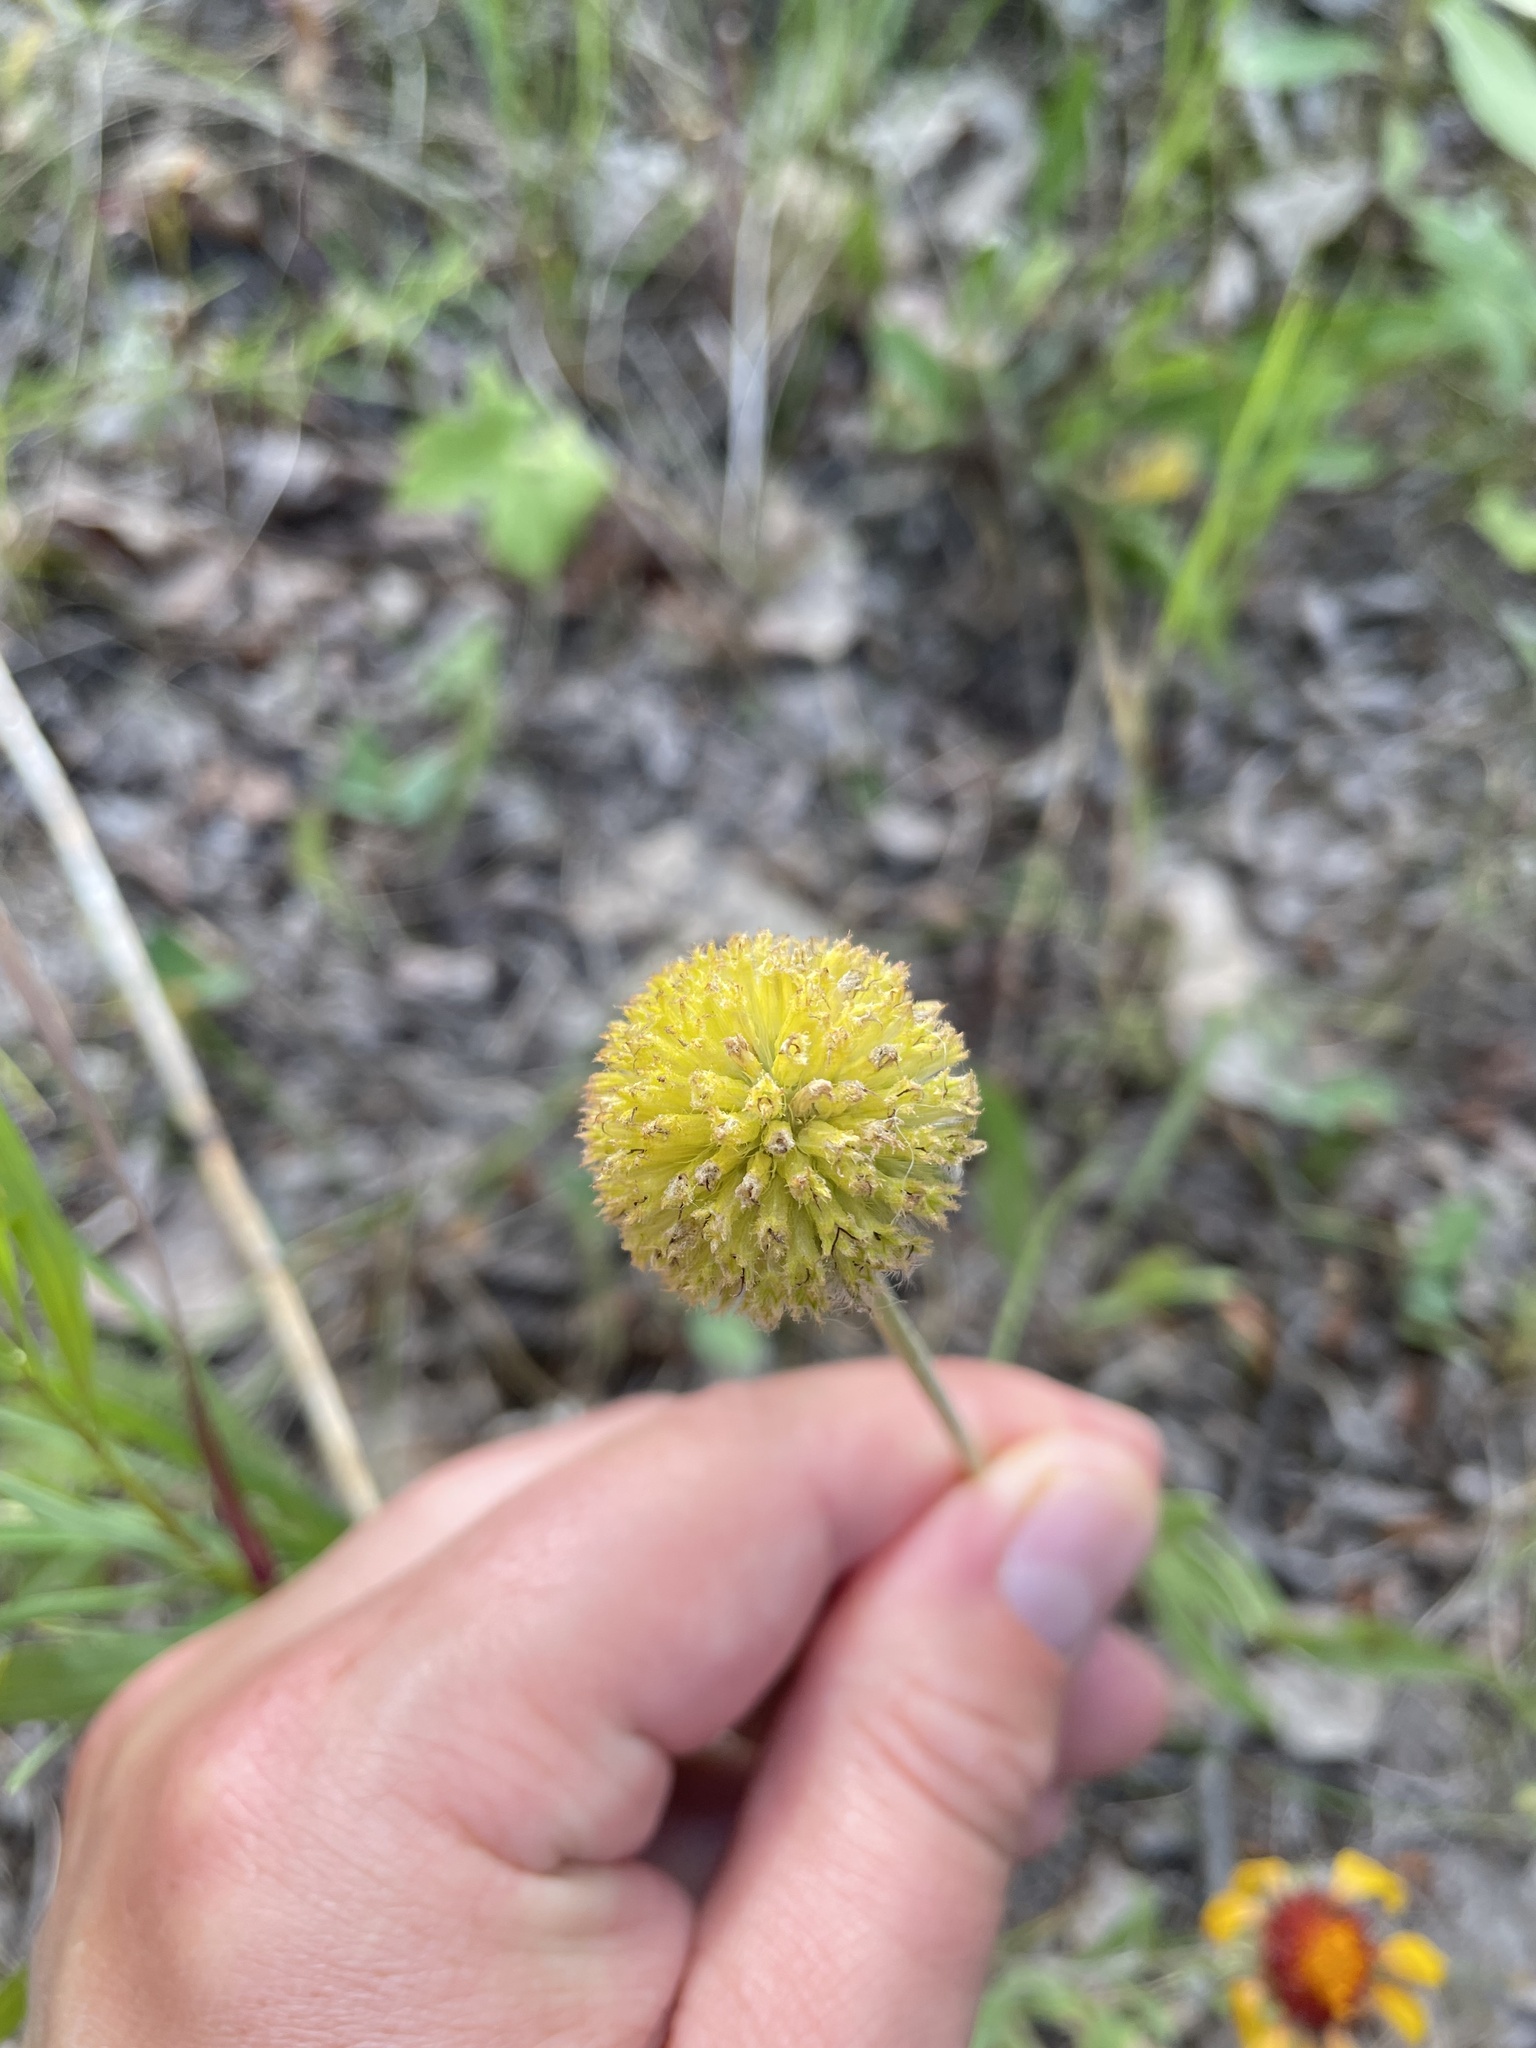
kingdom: Plantae
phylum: Tracheophyta
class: Magnoliopsida
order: Asterales
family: Asteraceae
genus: Gaillardia
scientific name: Gaillardia aristata
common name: Blanket-flower
